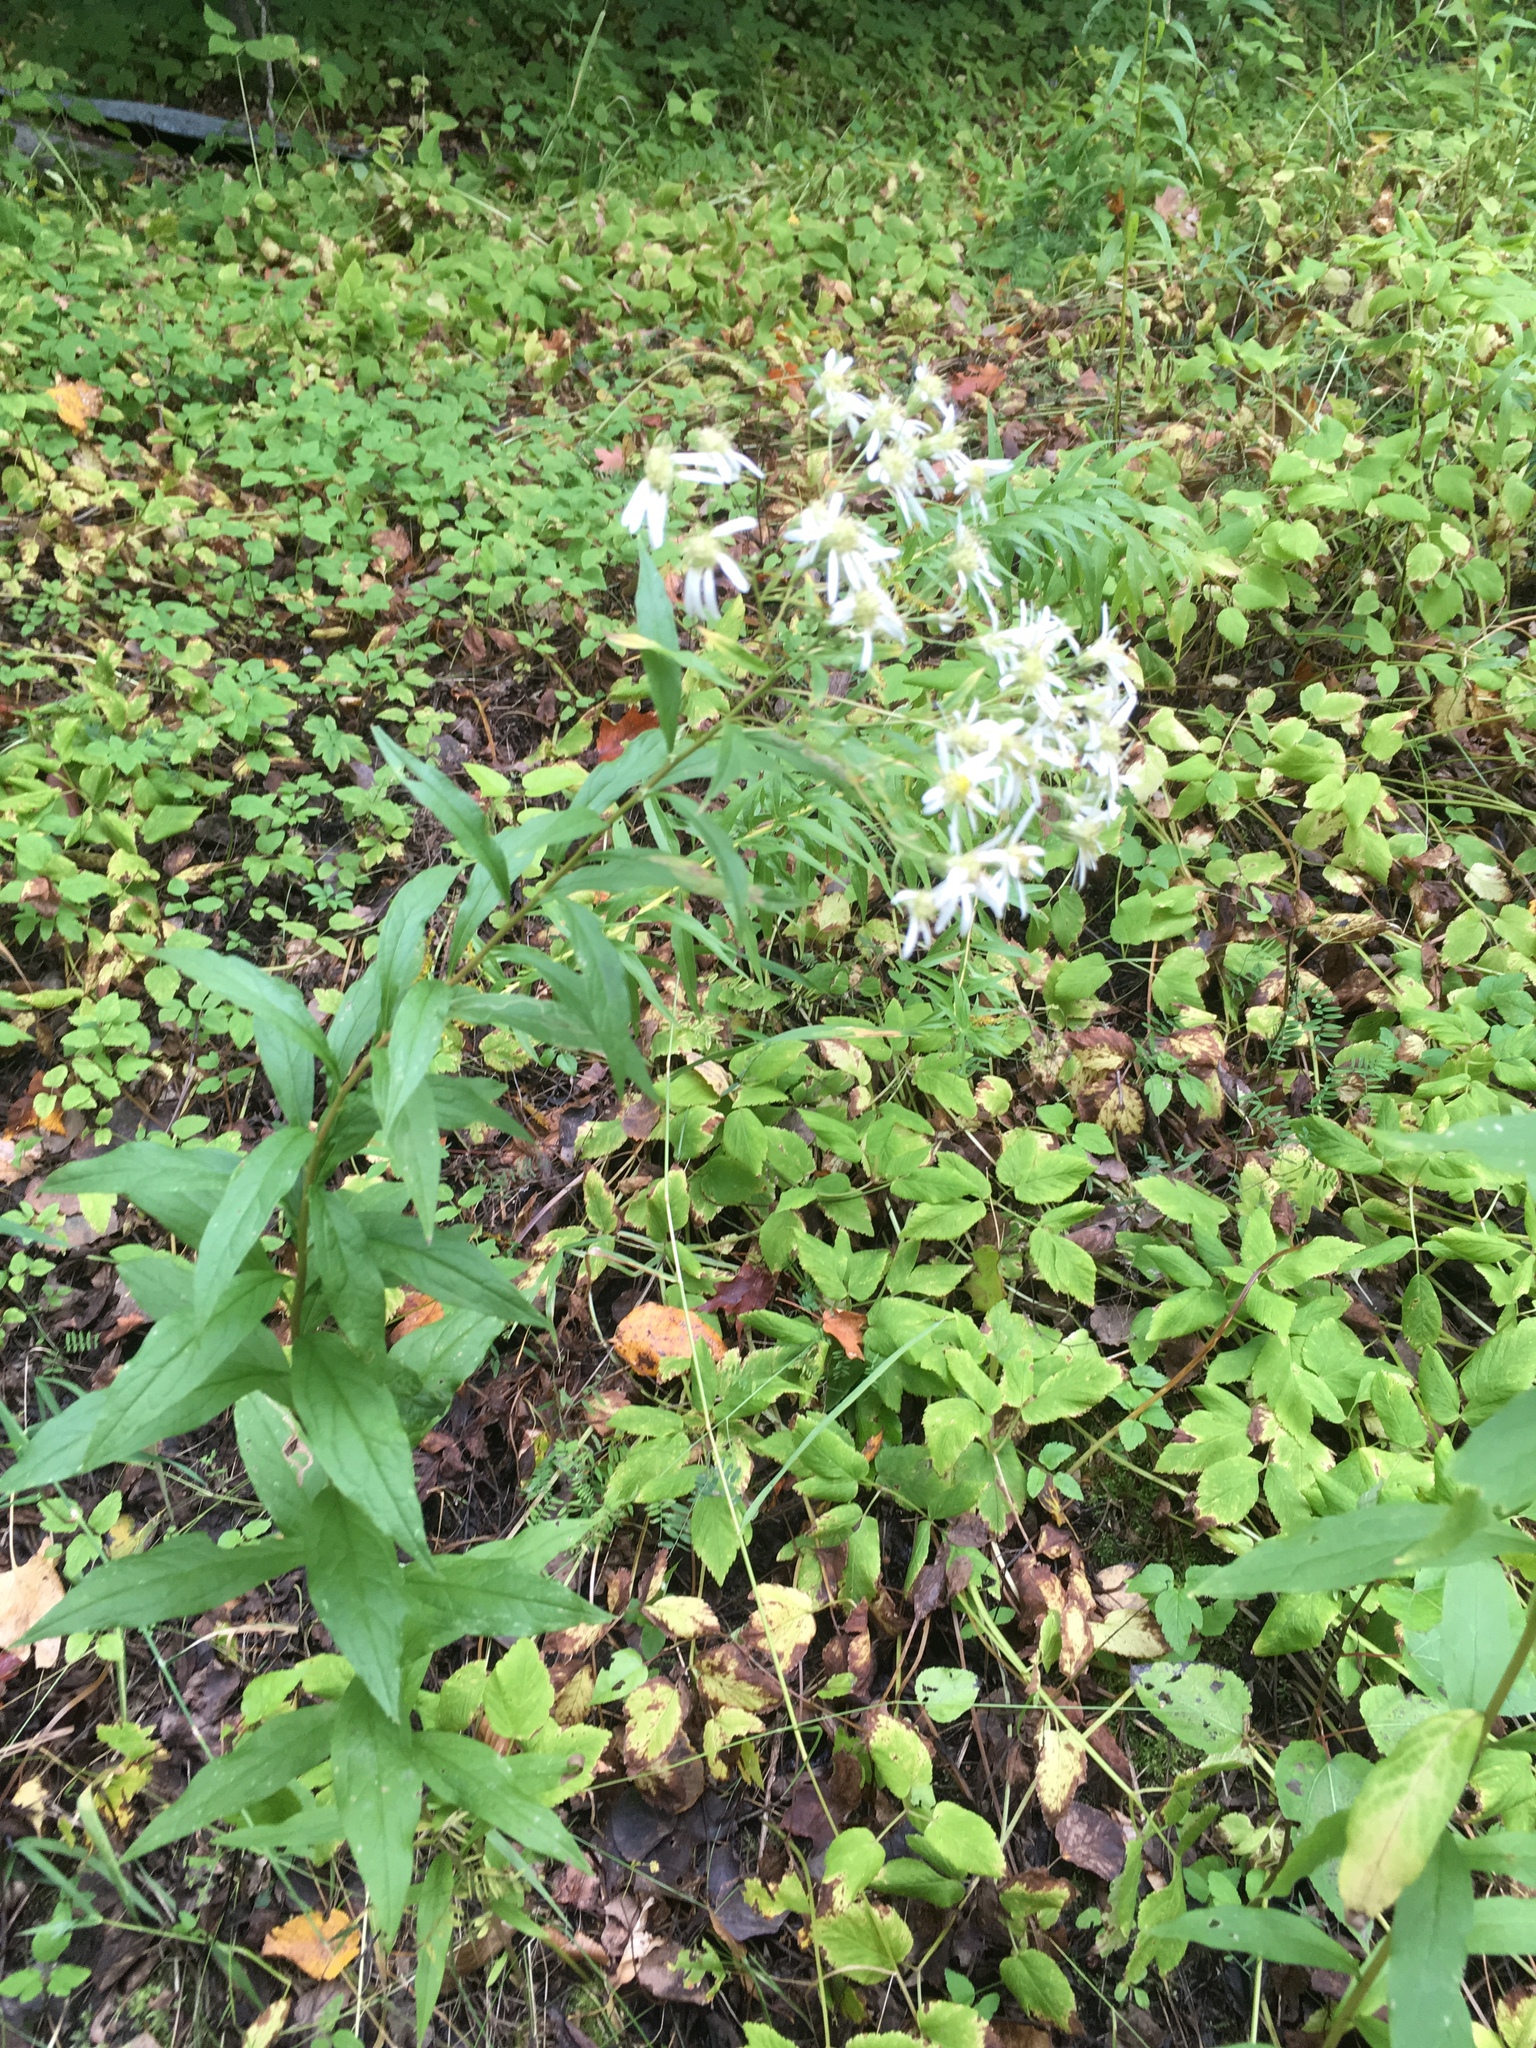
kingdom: Plantae
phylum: Tracheophyta
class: Magnoliopsida
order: Asterales
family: Asteraceae
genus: Doellingeria
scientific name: Doellingeria umbellata
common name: Flat-top white aster
